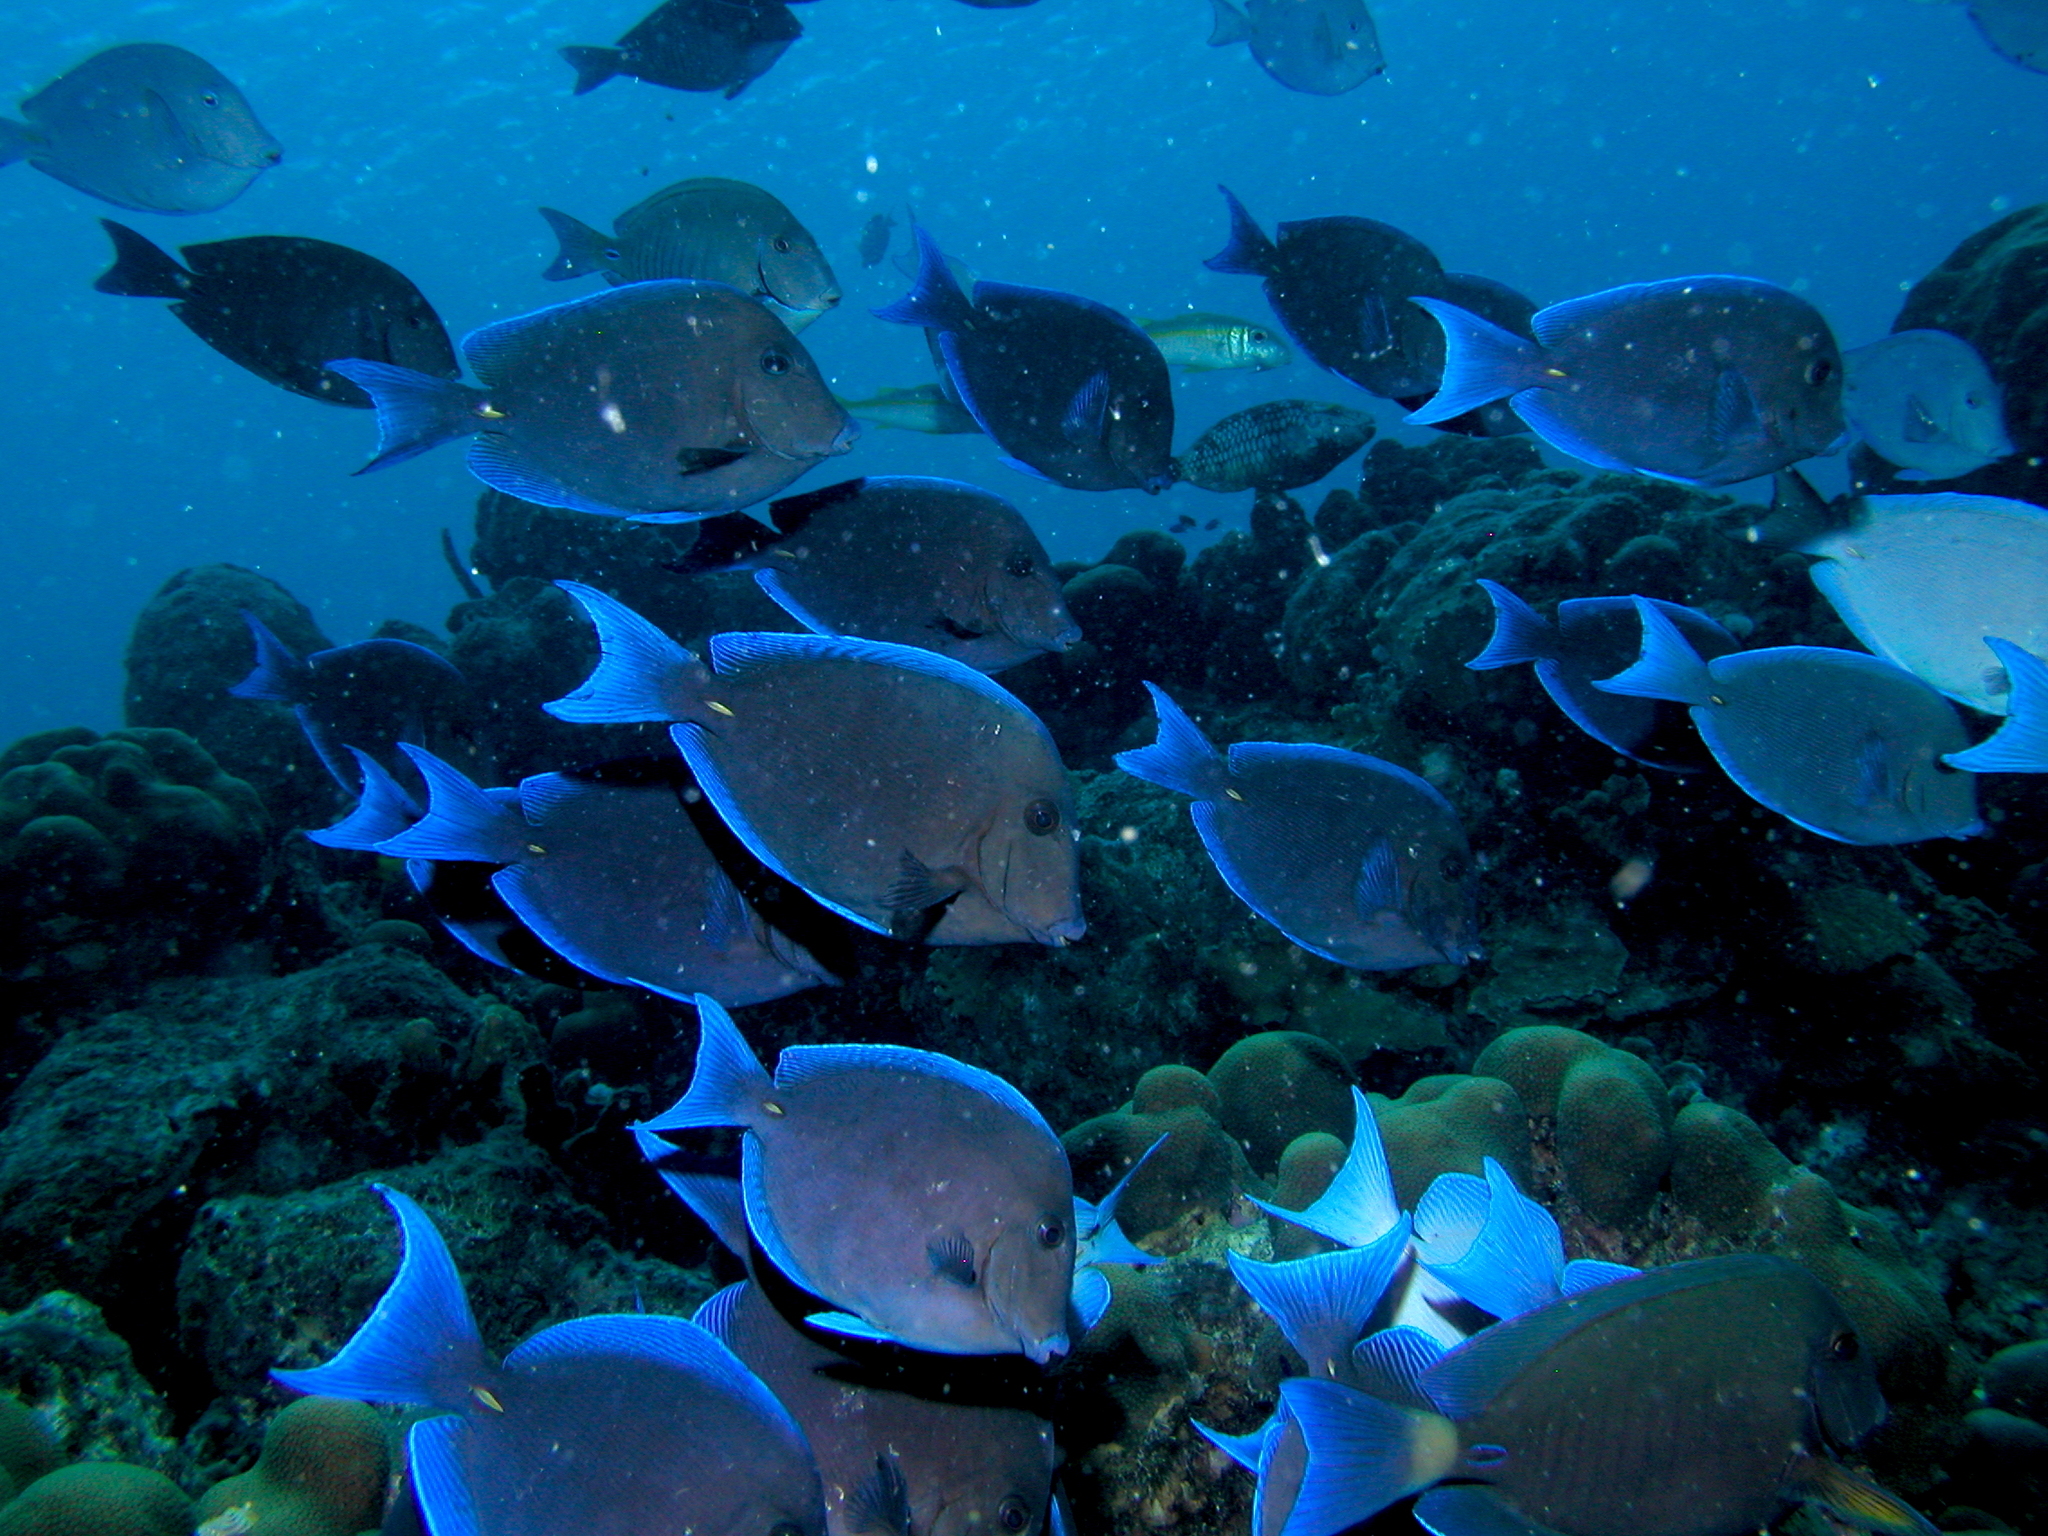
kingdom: Animalia
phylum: Chordata
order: Perciformes
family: Acanthuridae
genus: Acanthurus
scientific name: Acanthurus coeruleus
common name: Blue tang
